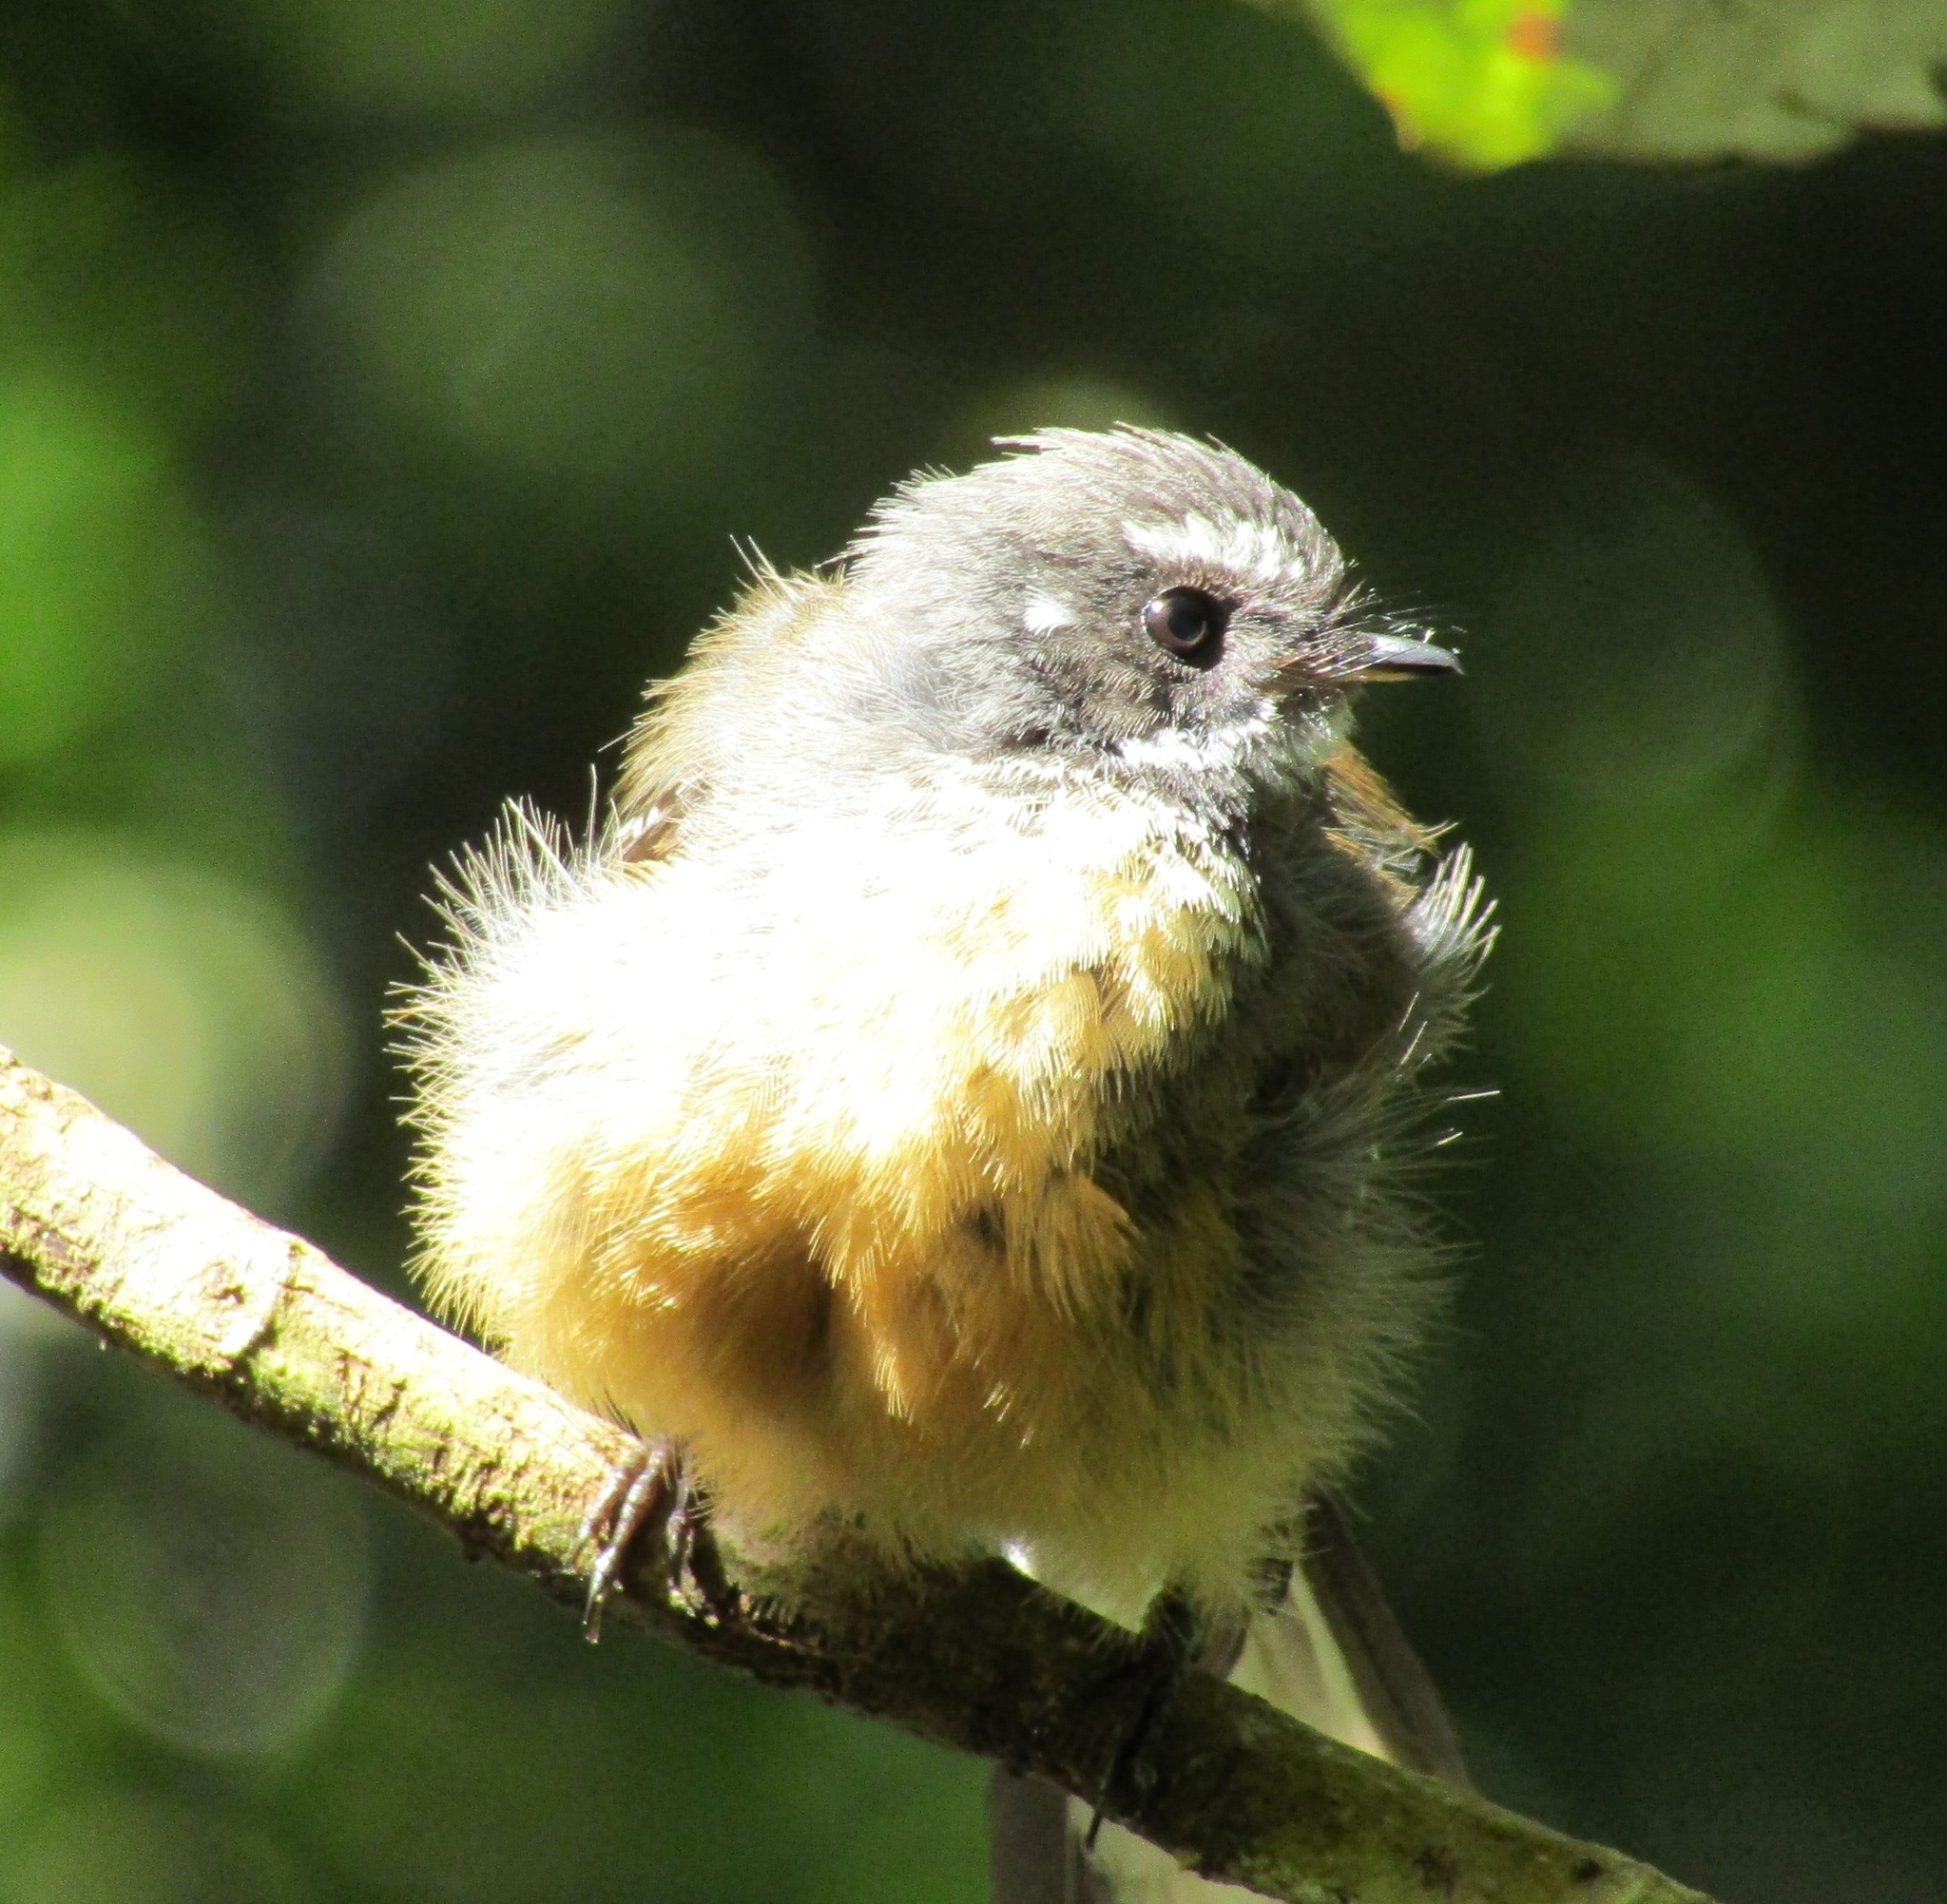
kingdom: Animalia
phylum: Chordata
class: Aves
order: Passeriformes
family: Rhipiduridae
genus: Rhipidura
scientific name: Rhipidura fuliginosa
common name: New zealand fantail
